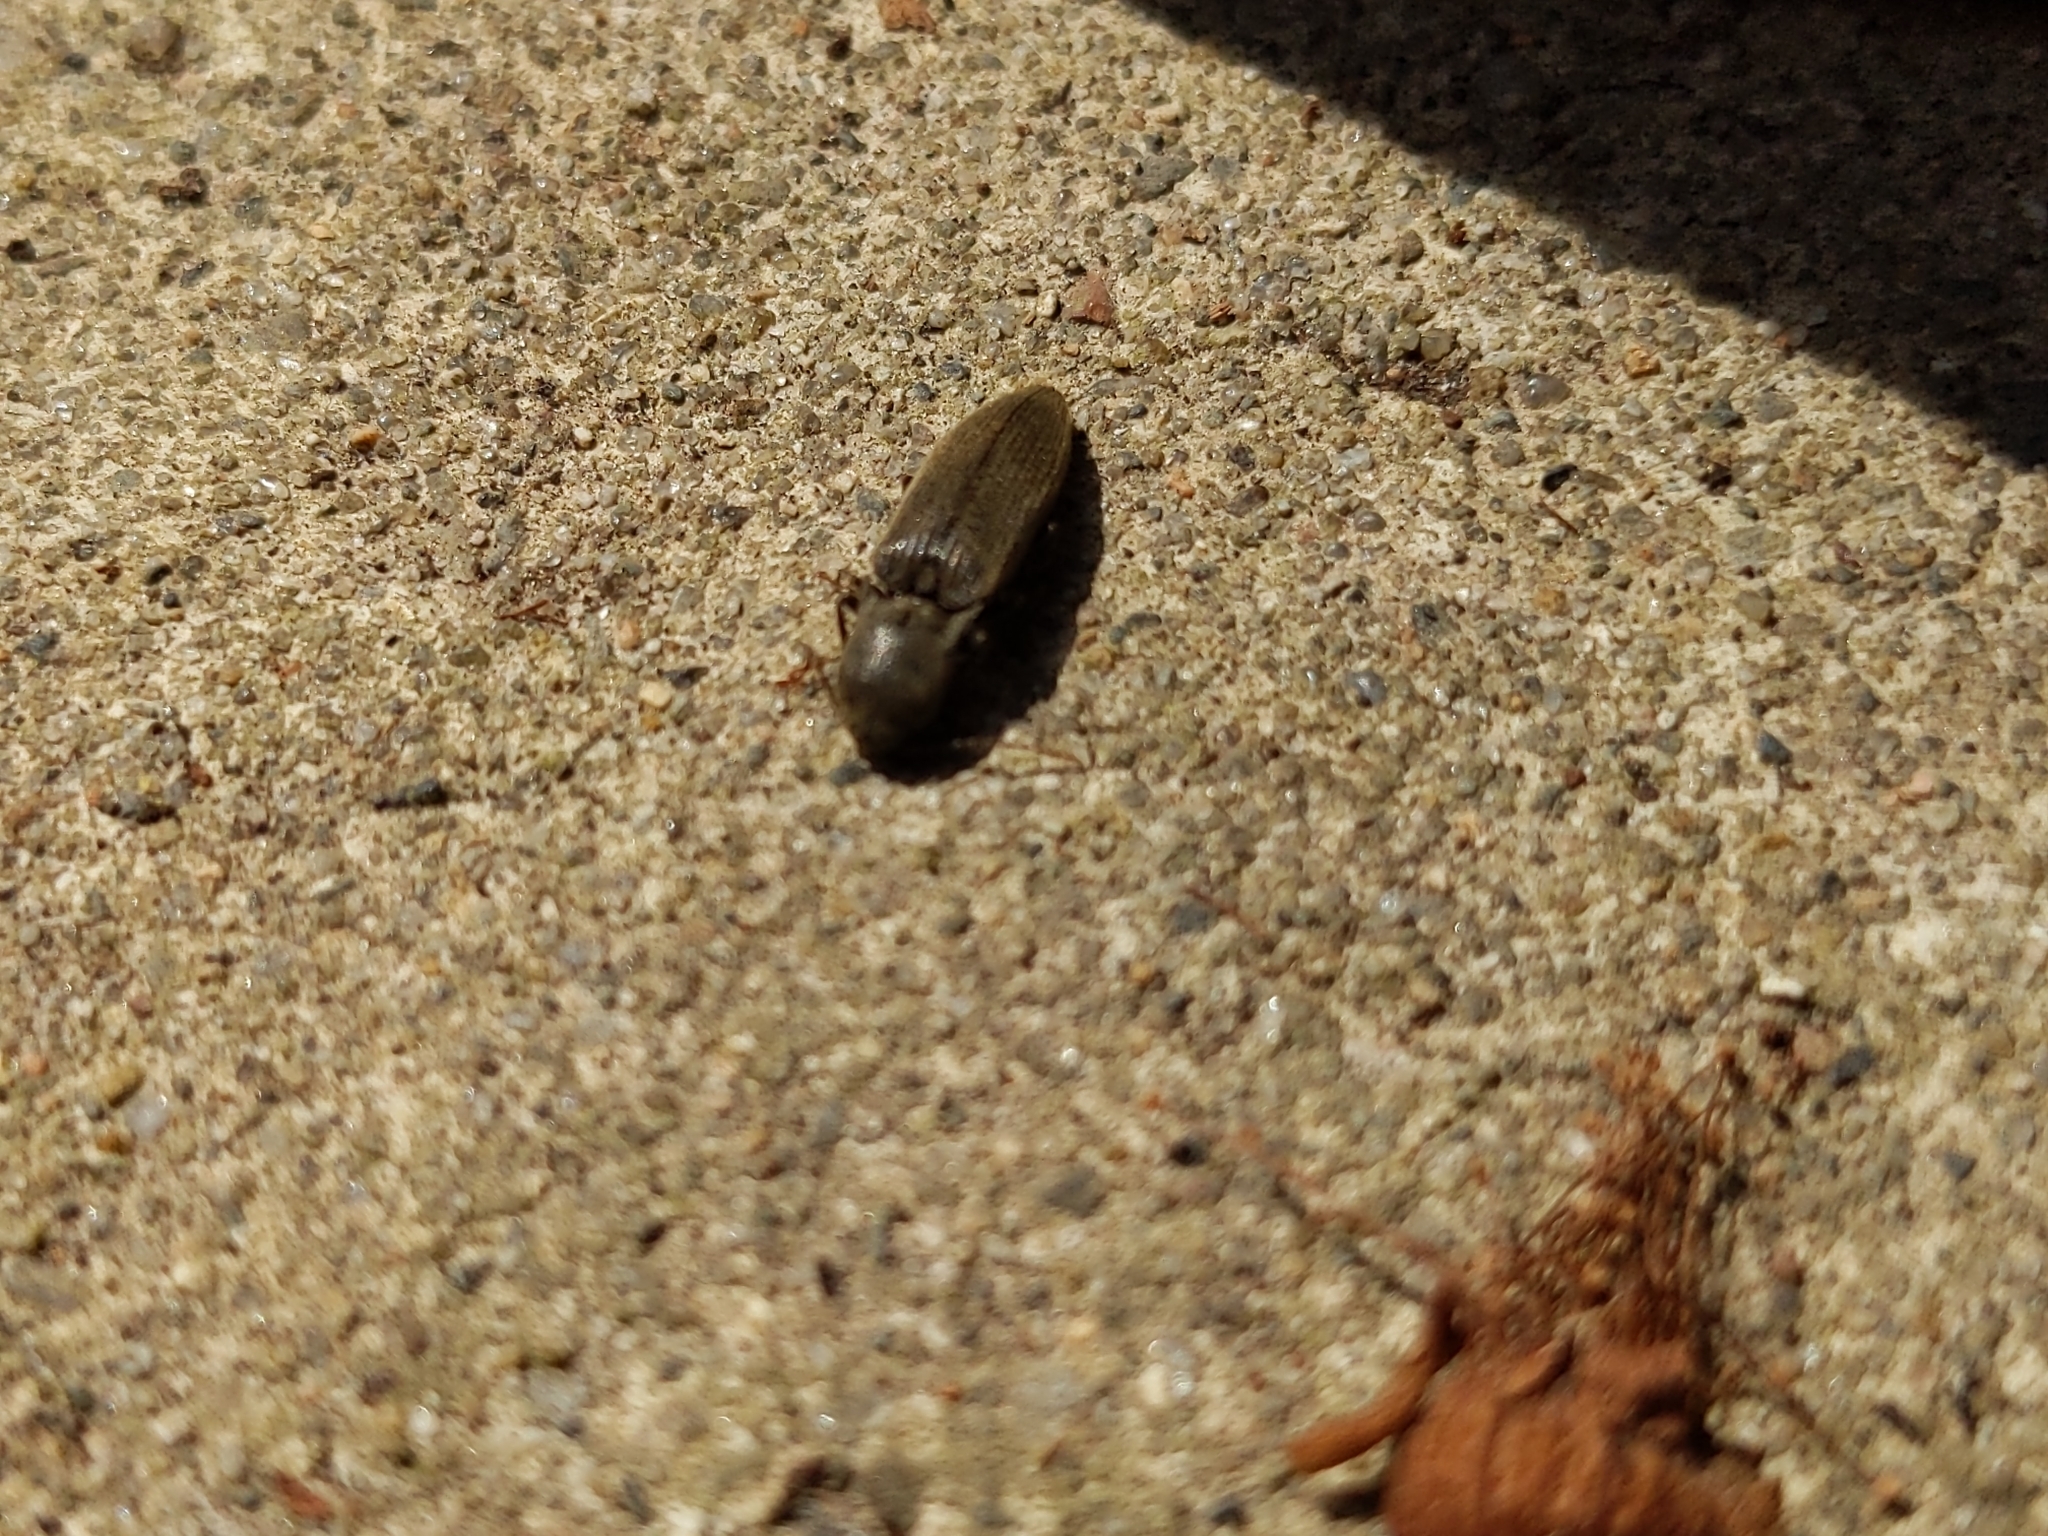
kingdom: Animalia
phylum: Arthropoda
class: Insecta
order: Coleoptera
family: Elateridae
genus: Agriotes
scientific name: Agriotes pilosellus
